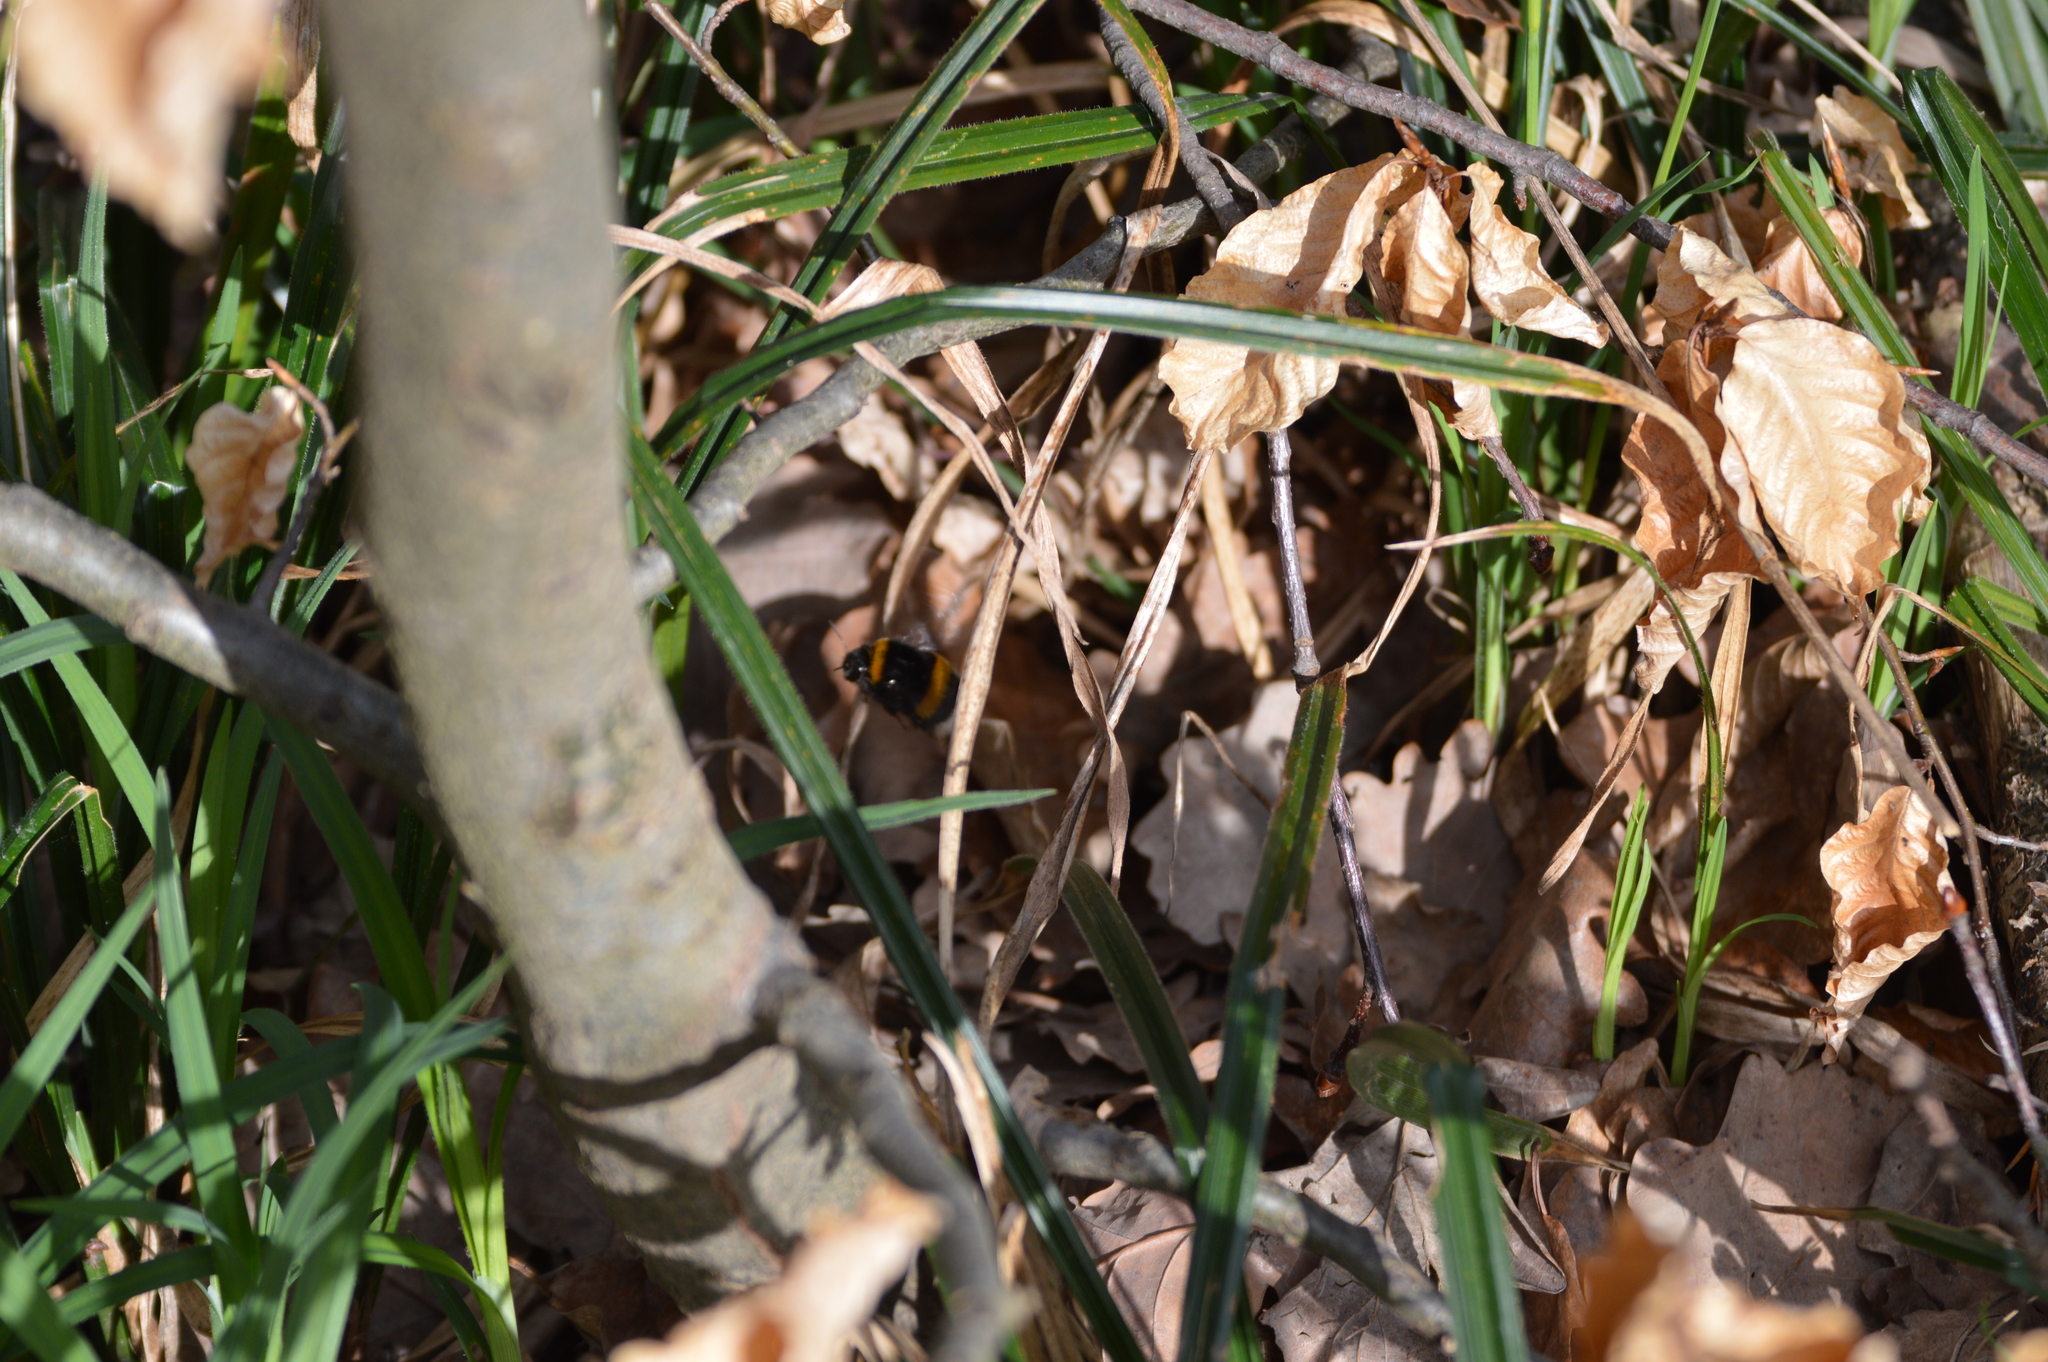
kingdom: Animalia
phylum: Arthropoda
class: Insecta
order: Hymenoptera
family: Apidae
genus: Bombus
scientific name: Bombus
